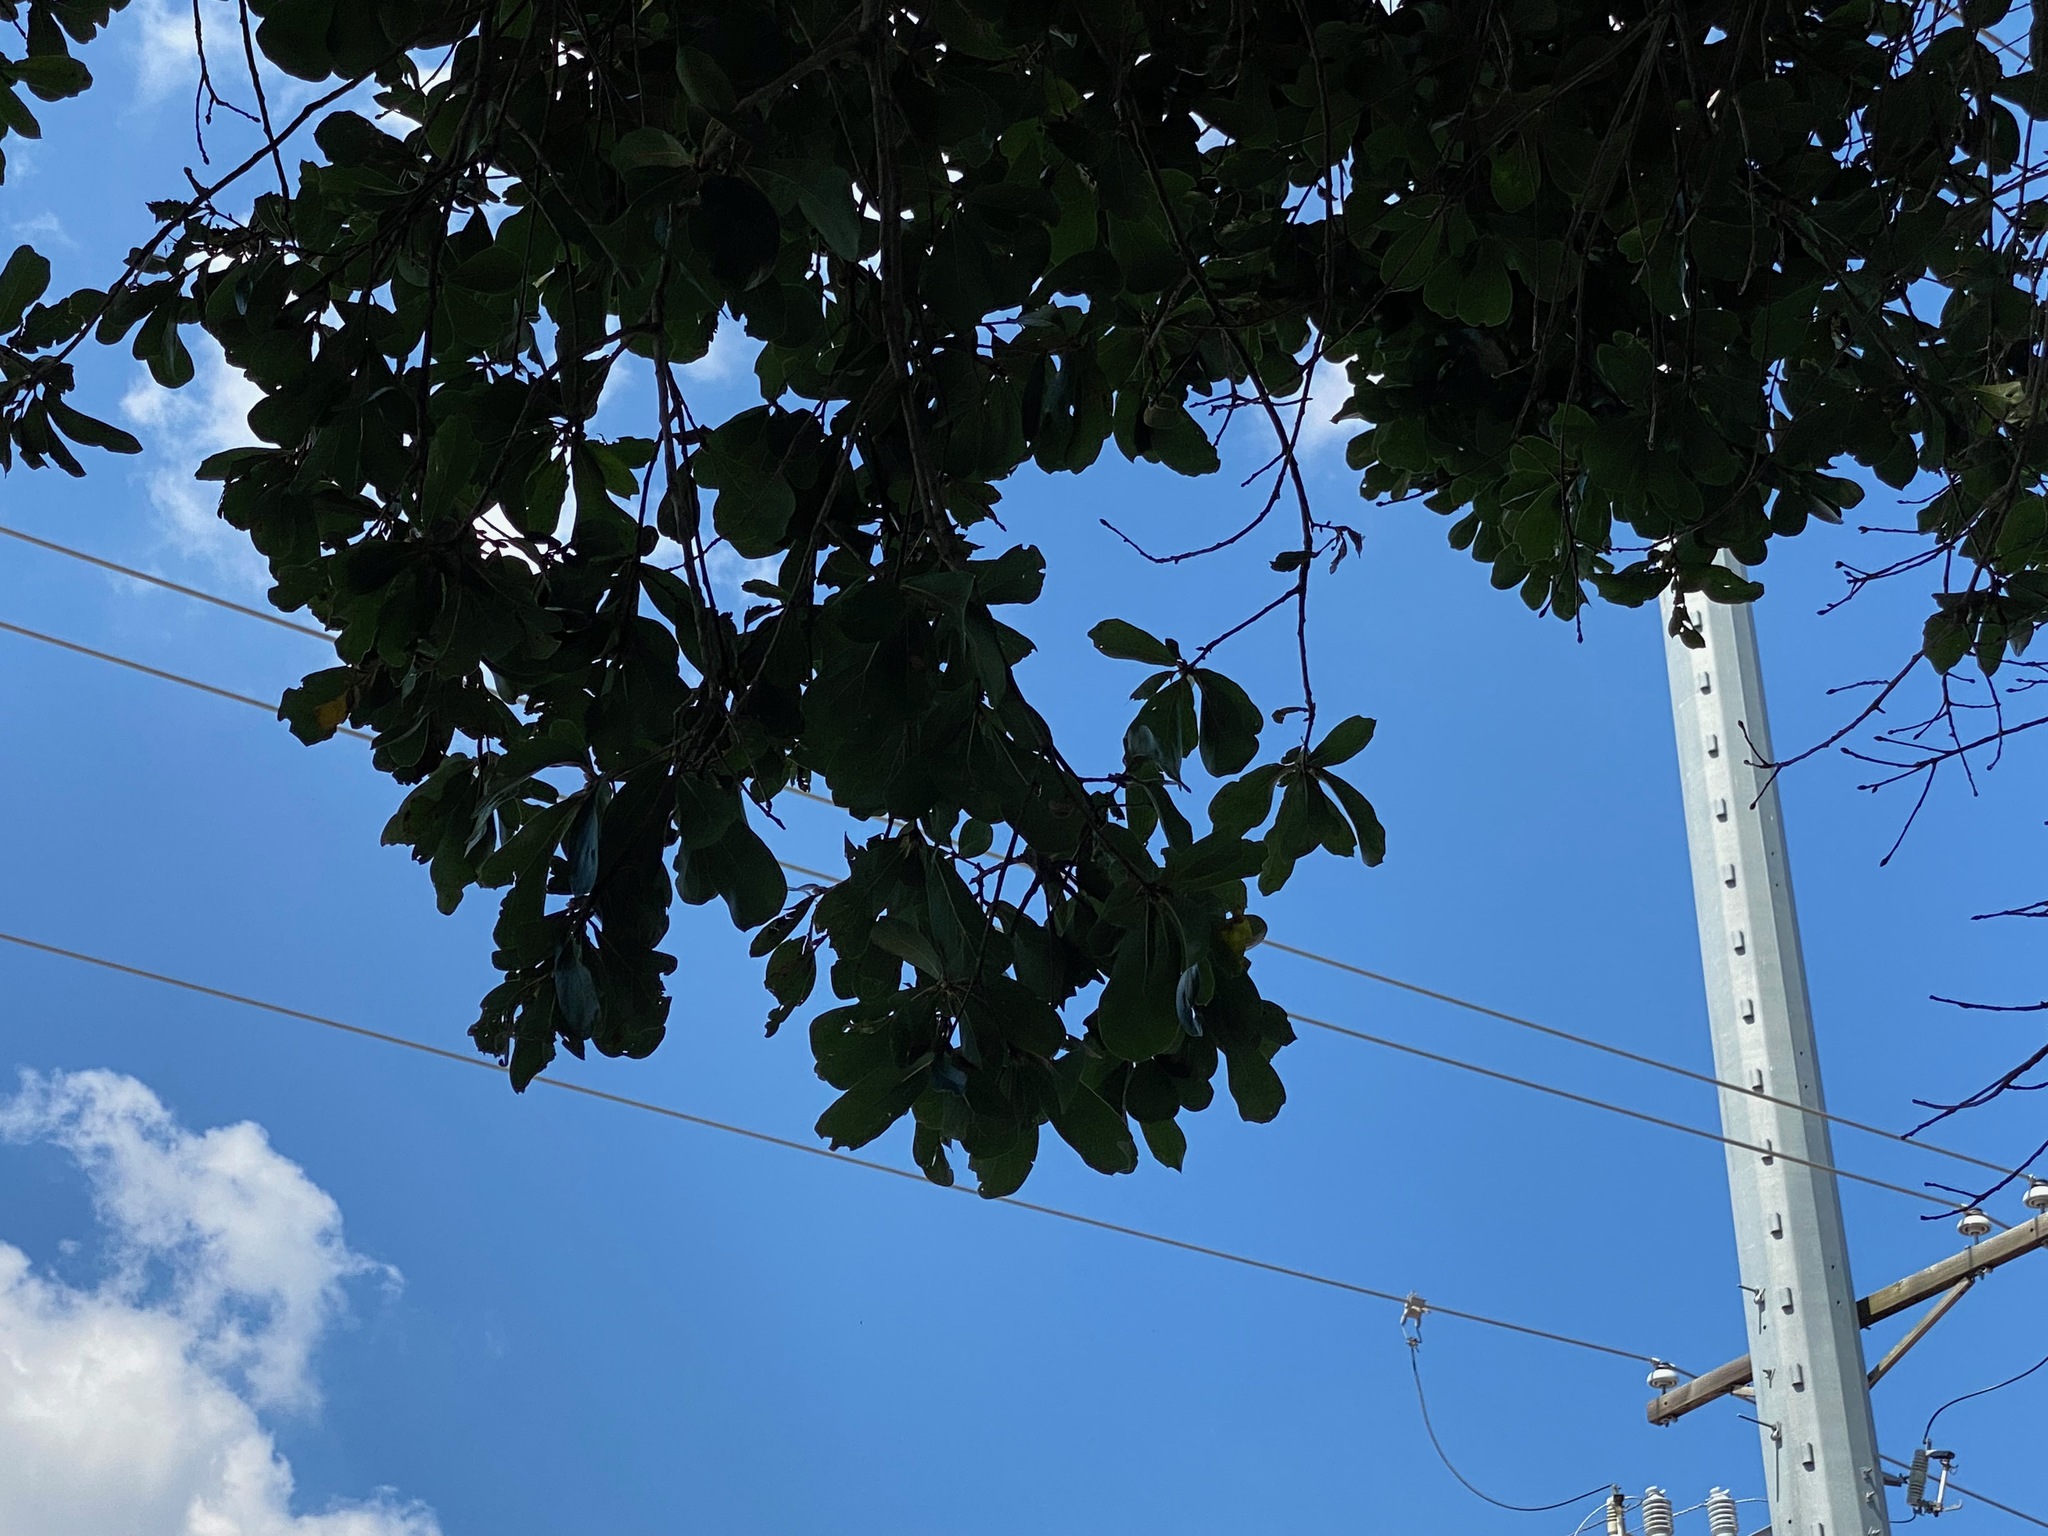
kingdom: Plantae
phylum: Tracheophyta
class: Magnoliopsida
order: Fagales
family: Fagaceae
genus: Quercus
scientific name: Quercus nigra
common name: Water oak
